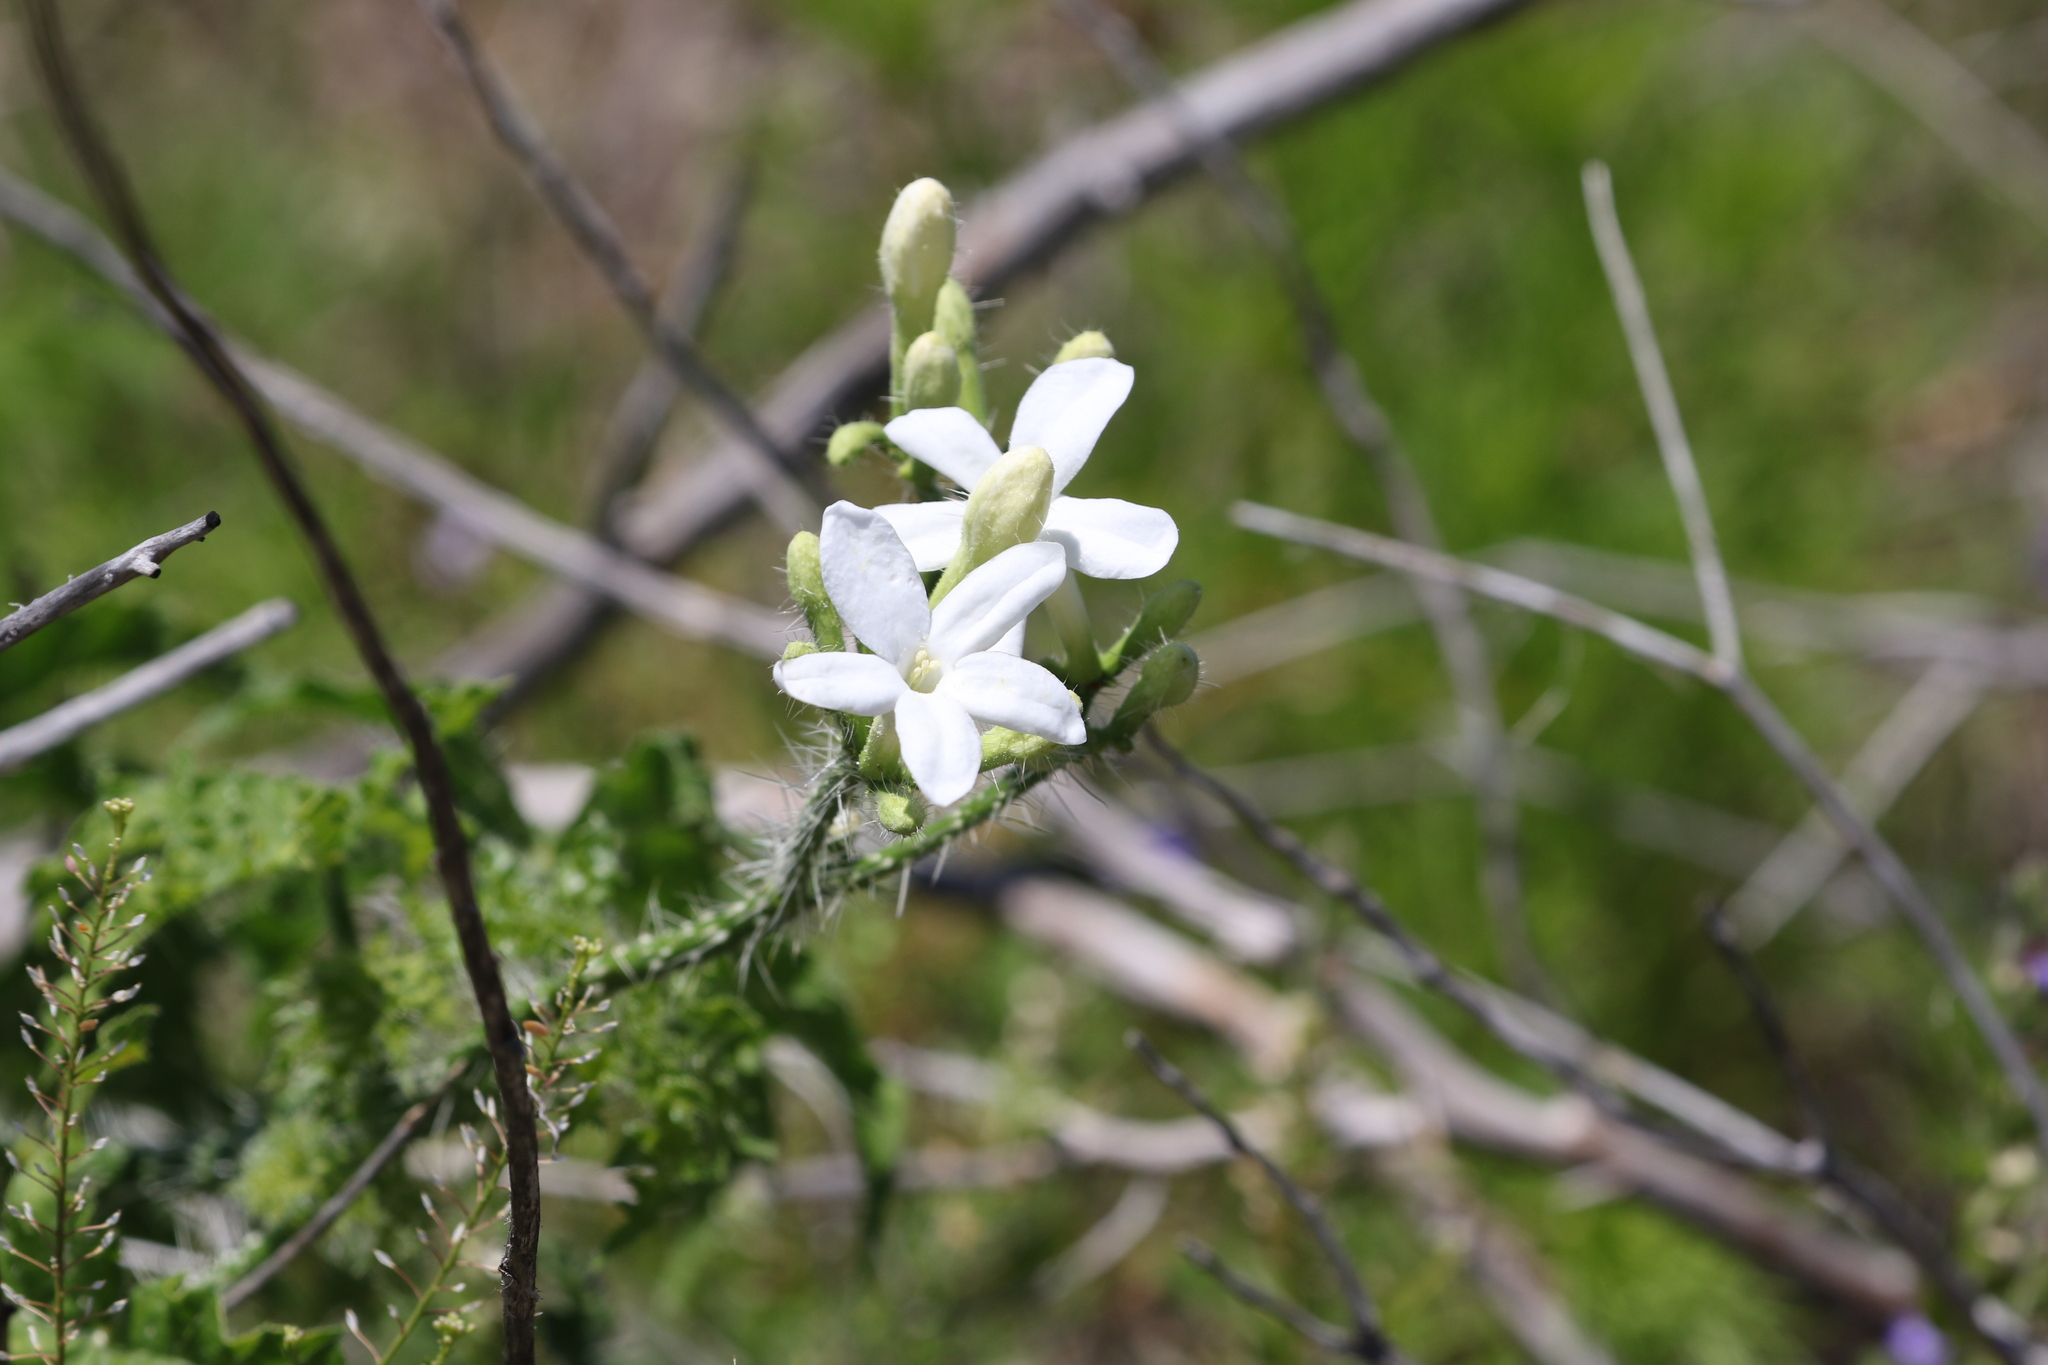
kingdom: Plantae
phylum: Tracheophyta
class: Magnoliopsida
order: Malpighiales
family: Euphorbiaceae
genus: Cnidoscolus
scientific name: Cnidoscolus texanus
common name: Texas bull-nettle
